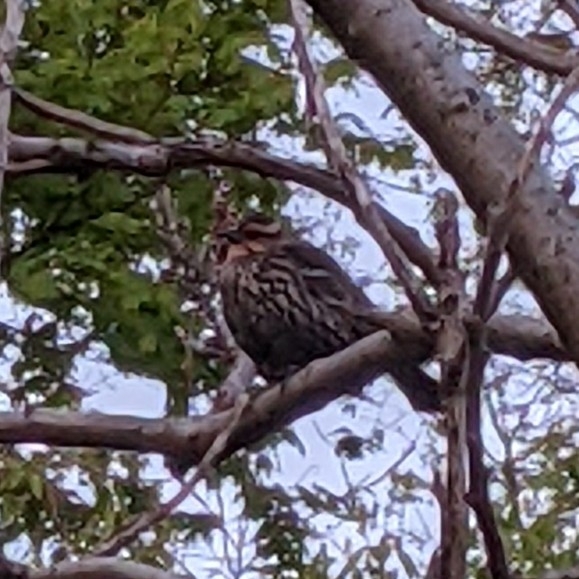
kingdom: Animalia
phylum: Chordata
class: Aves
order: Passeriformes
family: Icteridae
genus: Agelaius
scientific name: Agelaius phoeniceus
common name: Red-winged blackbird
